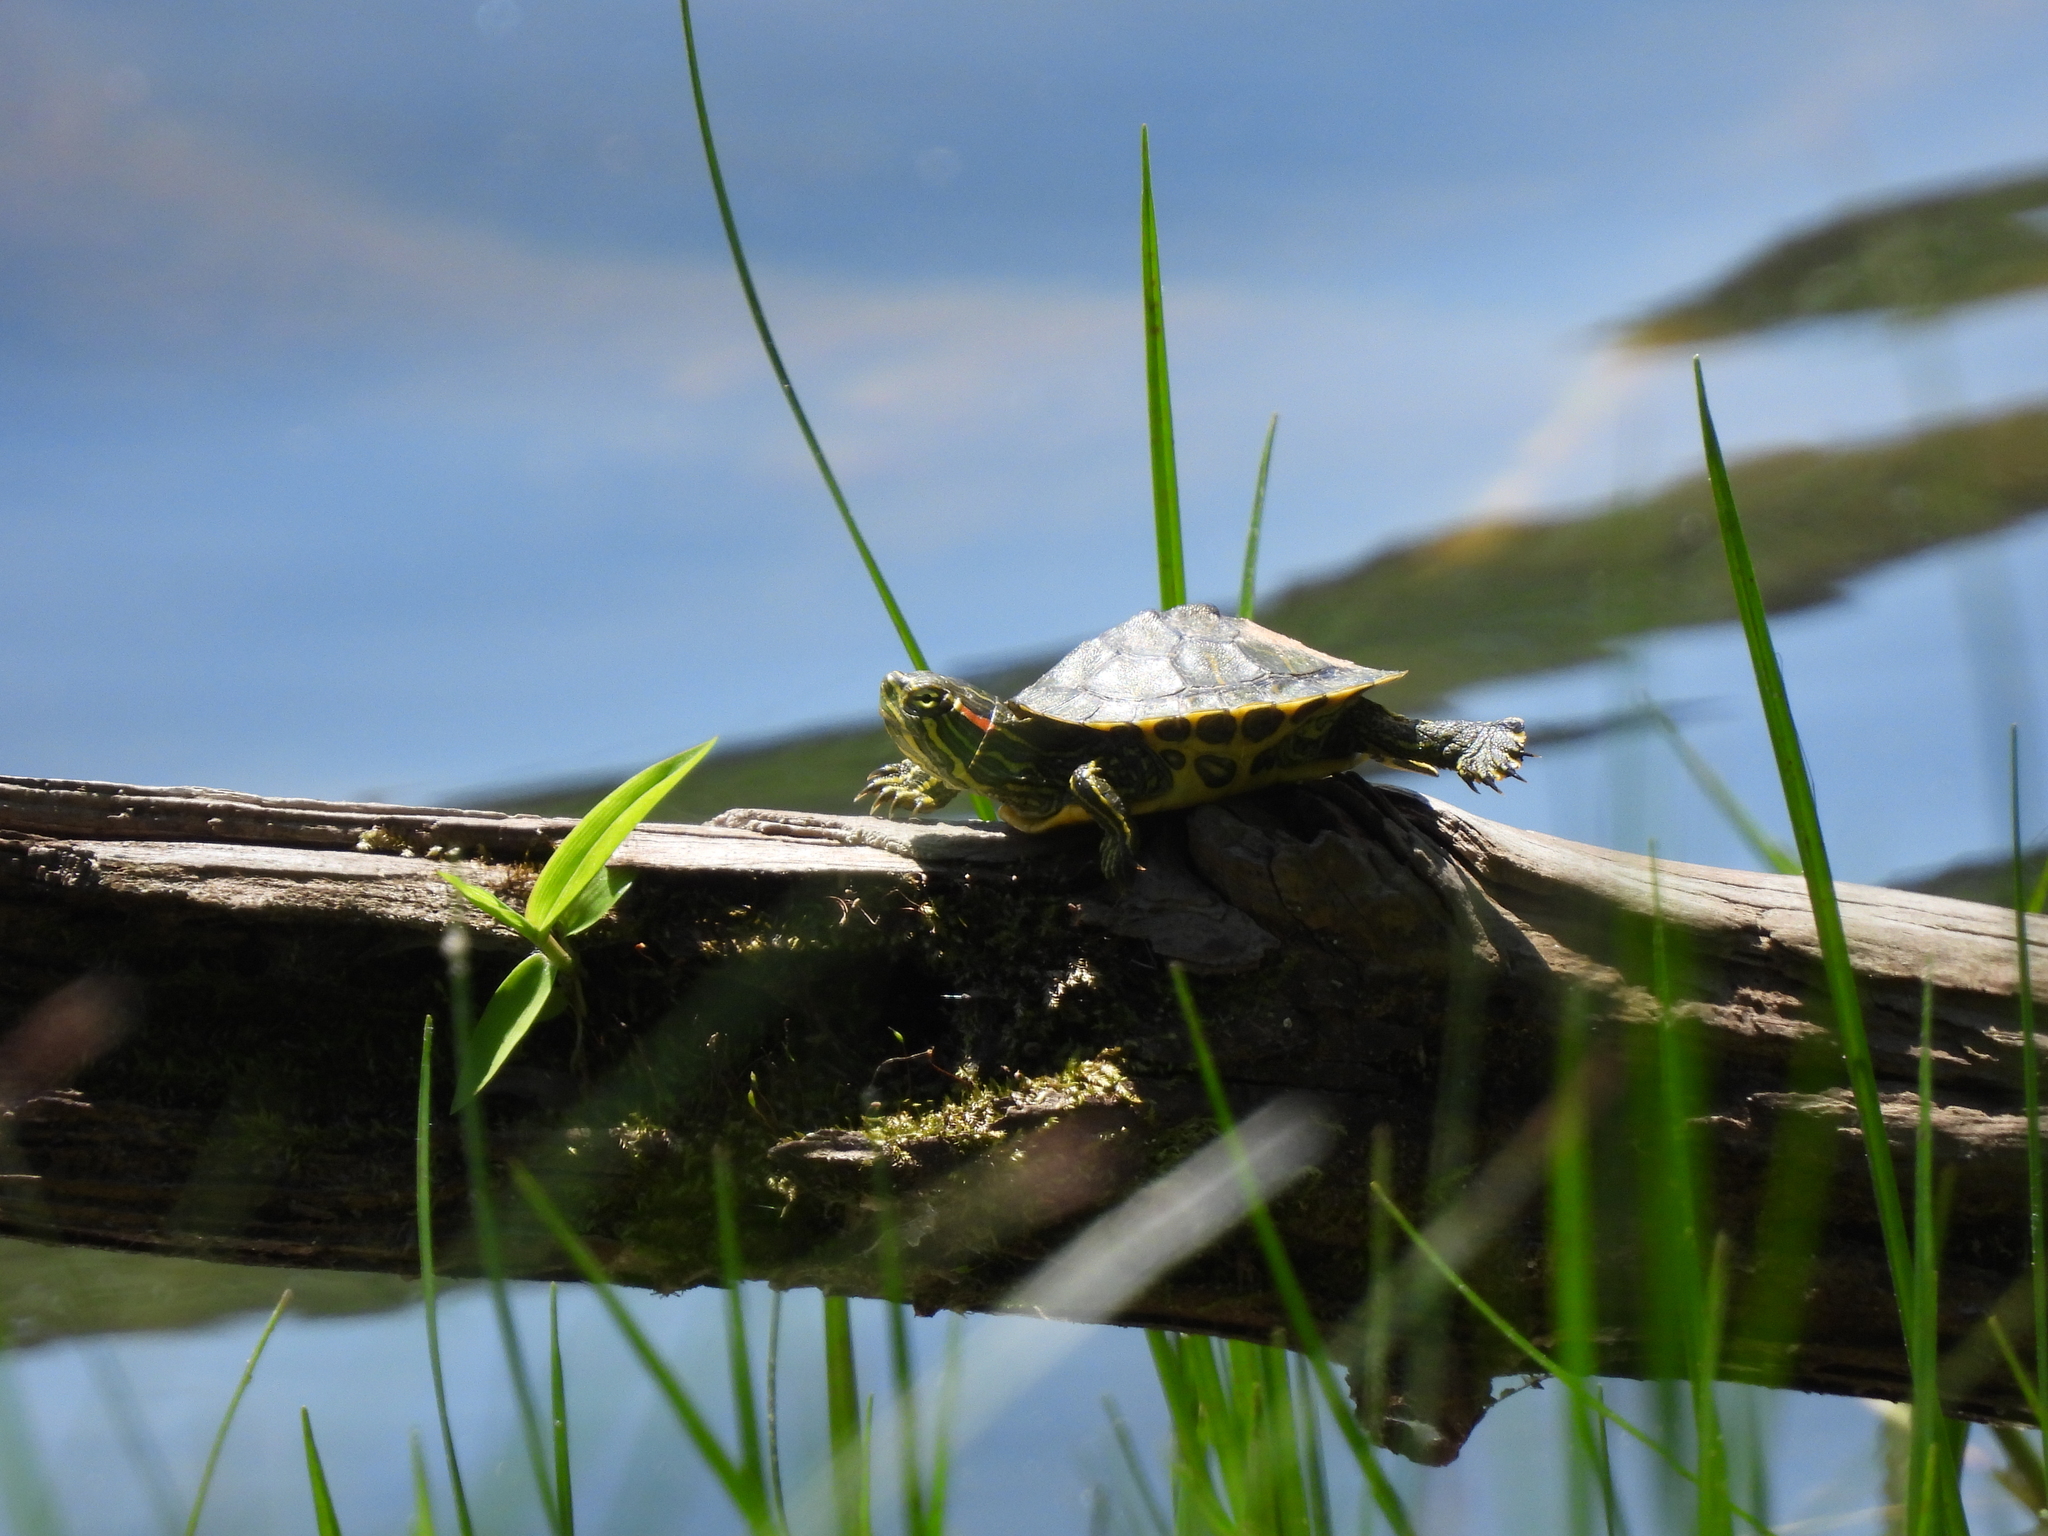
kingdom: Animalia
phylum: Chordata
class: Testudines
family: Emydidae
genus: Trachemys
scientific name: Trachemys scripta
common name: Slider
